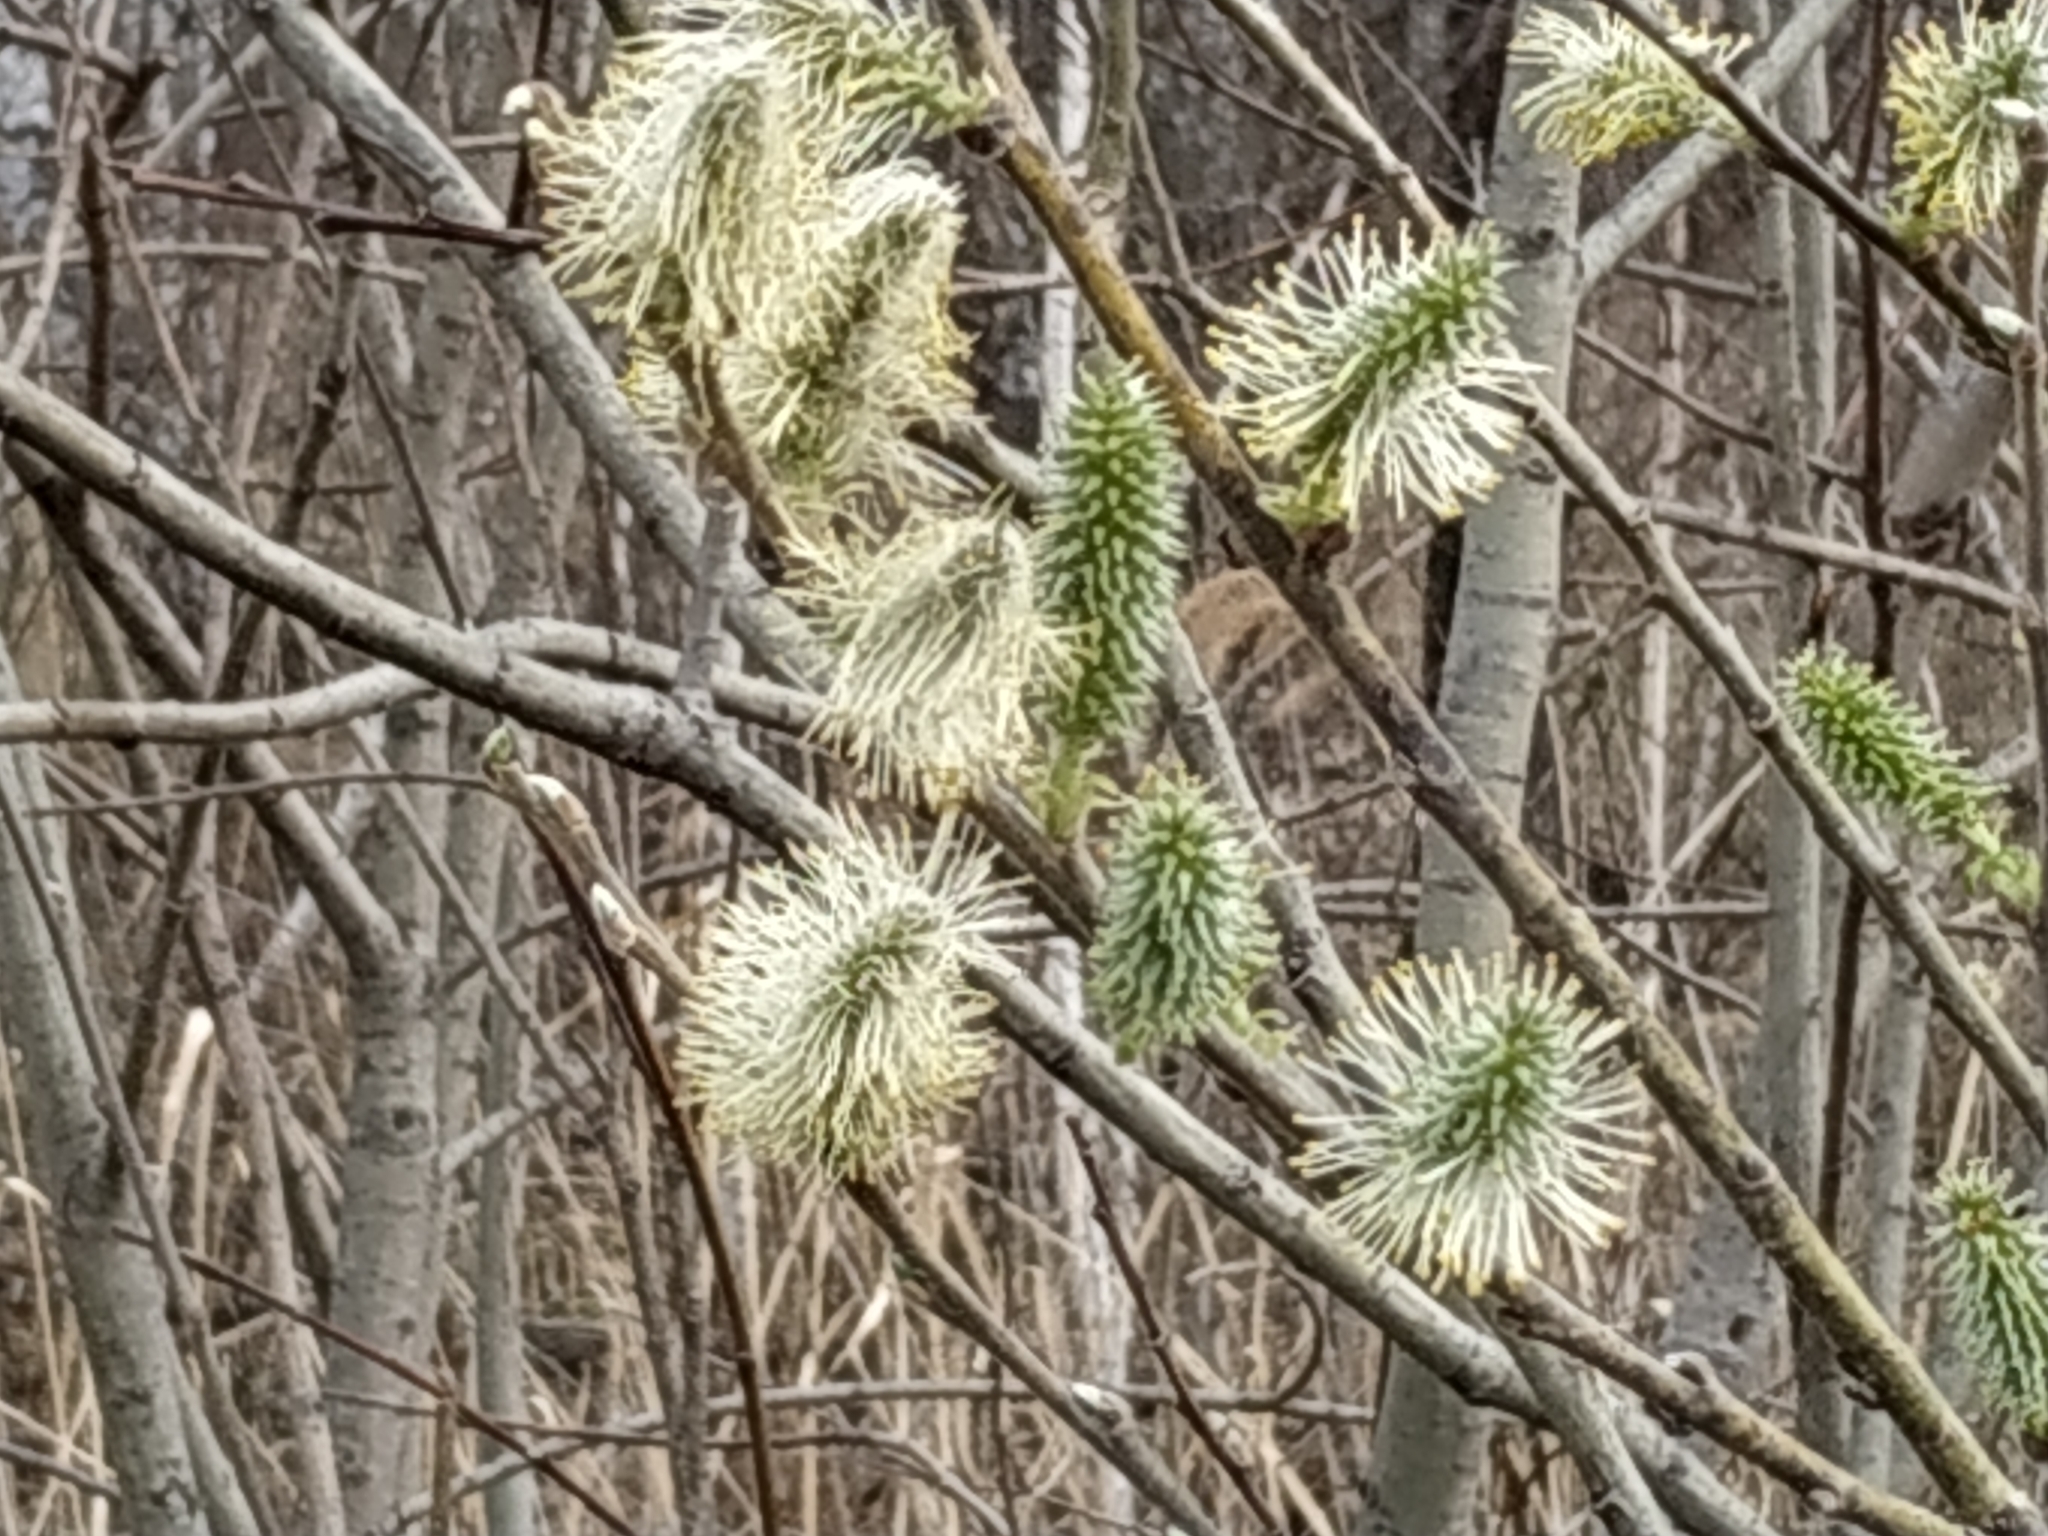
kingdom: Plantae
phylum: Tracheophyta
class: Magnoliopsida
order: Malpighiales
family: Salicaceae
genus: Salix
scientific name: Salix cinerea
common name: Common sallow
